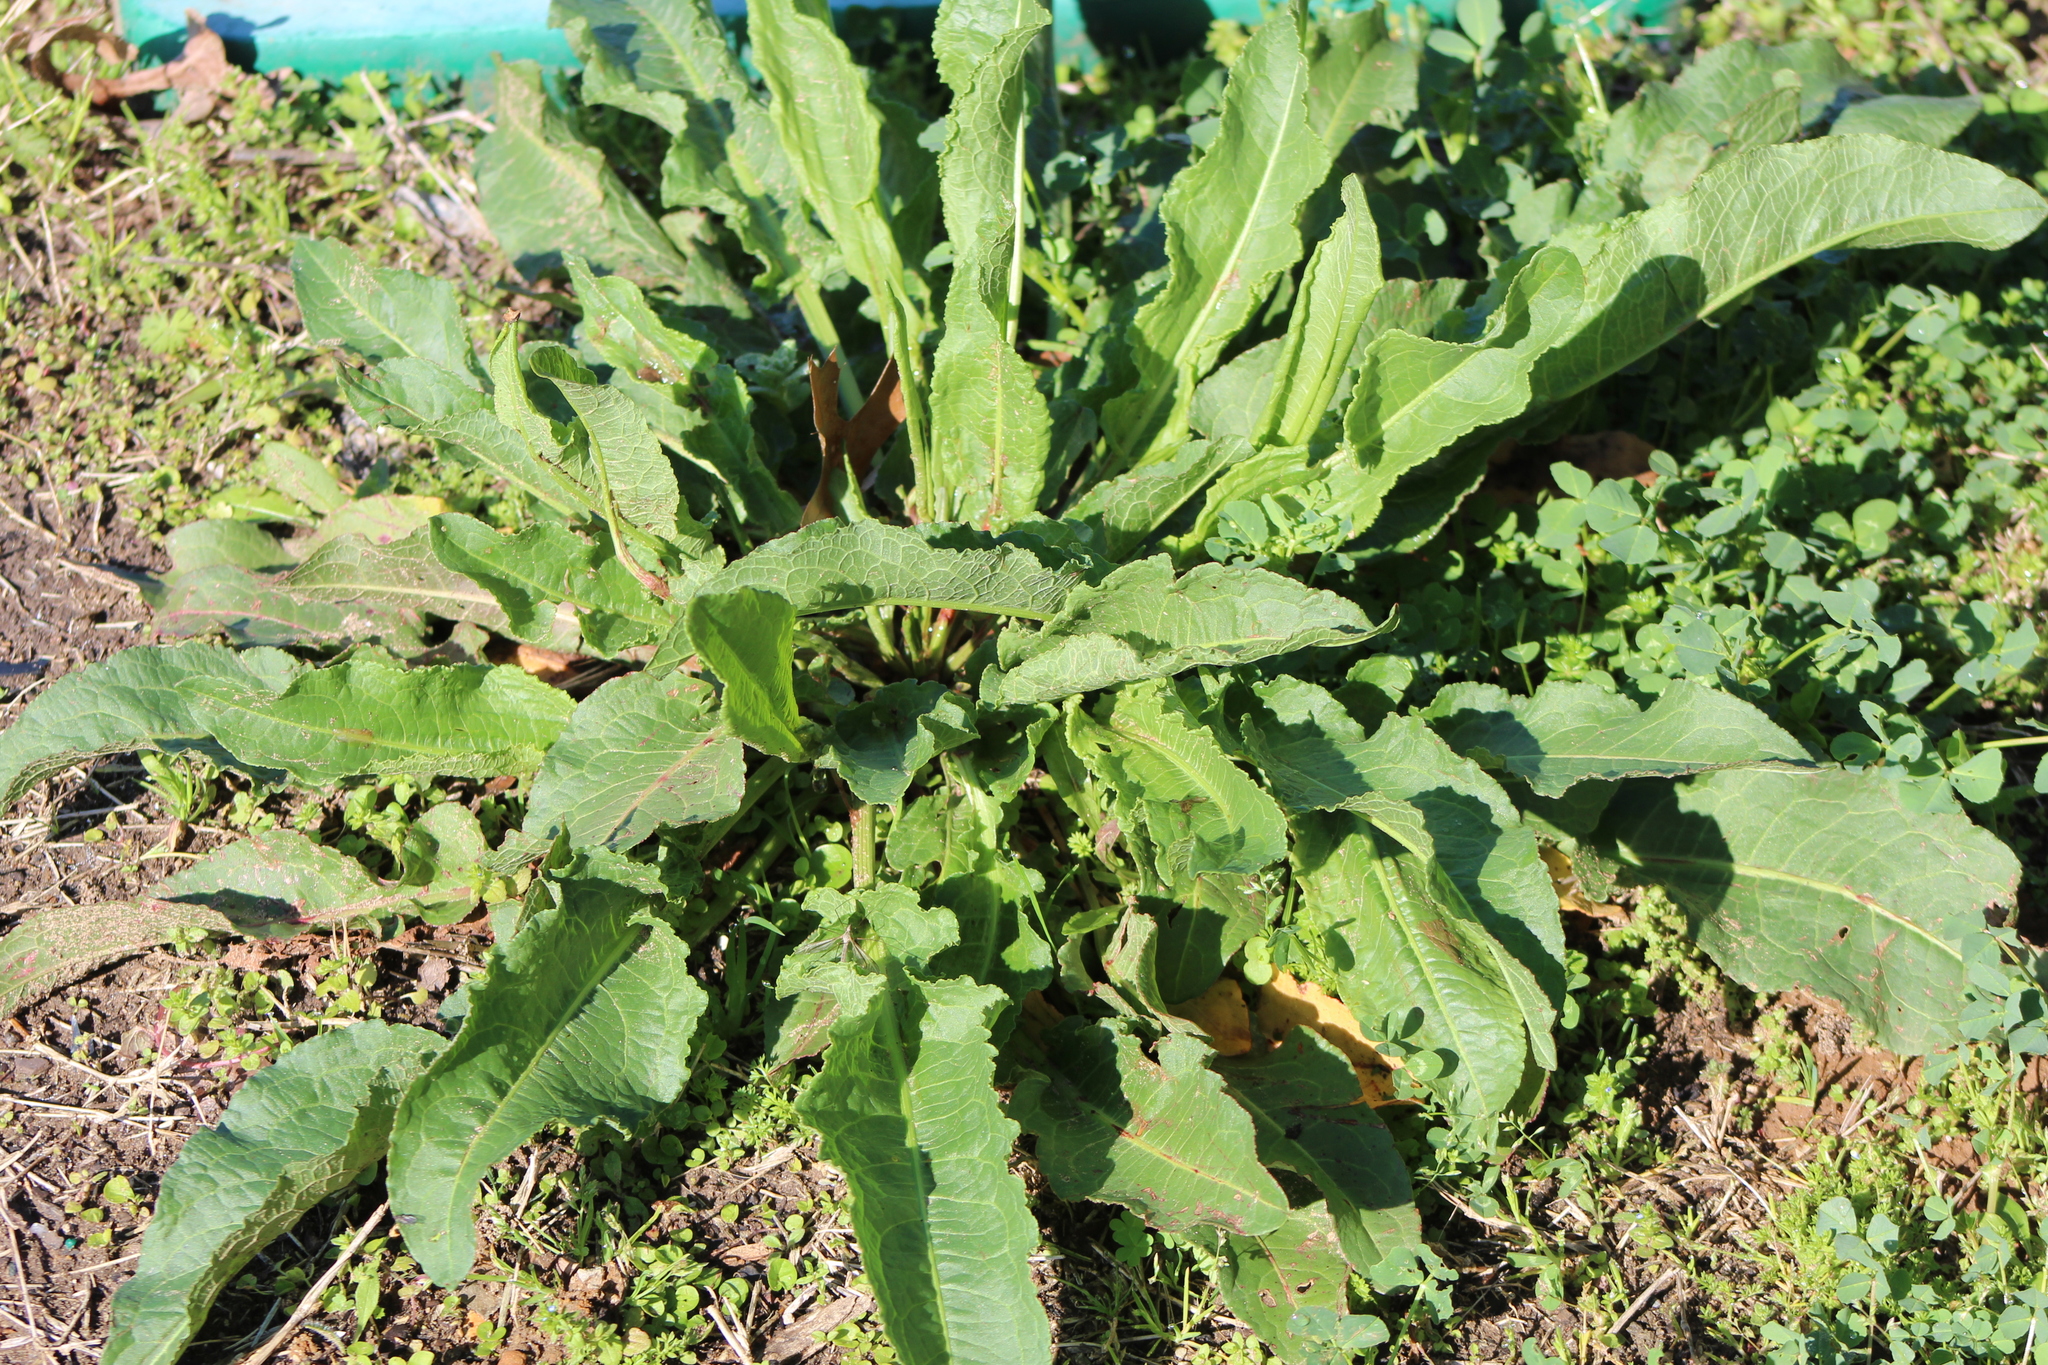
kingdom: Plantae
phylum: Tracheophyta
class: Magnoliopsida
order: Caryophyllales
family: Polygonaceae
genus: Rumex
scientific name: Rumex crispus
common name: Curled dock
